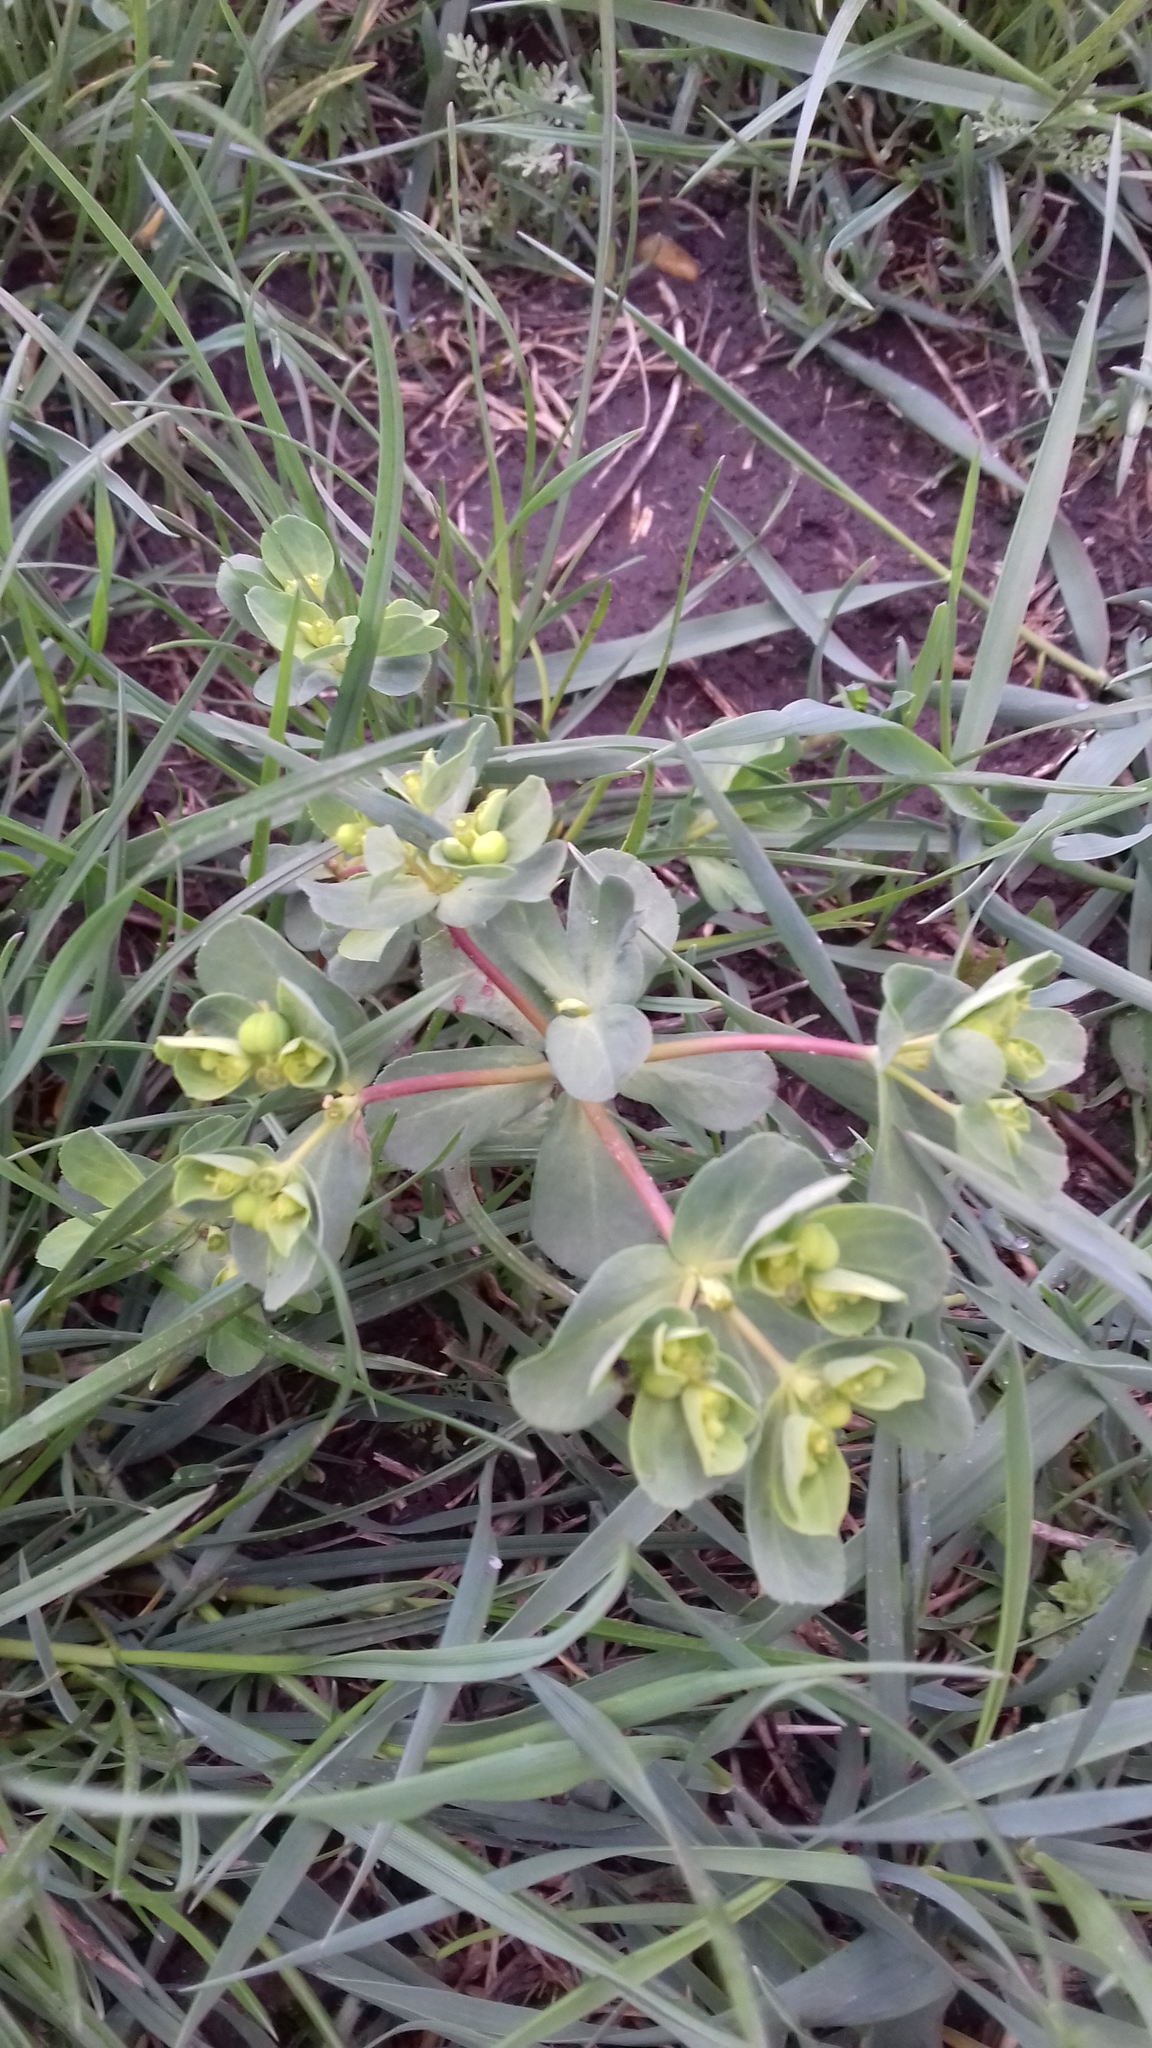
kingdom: Plantae
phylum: Tracheophyta
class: Magnoliopsida
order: Malpighiales
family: Euphorbiaceae
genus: Euphorbia
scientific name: Euphorbia helioscopia
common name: Sun spurge
